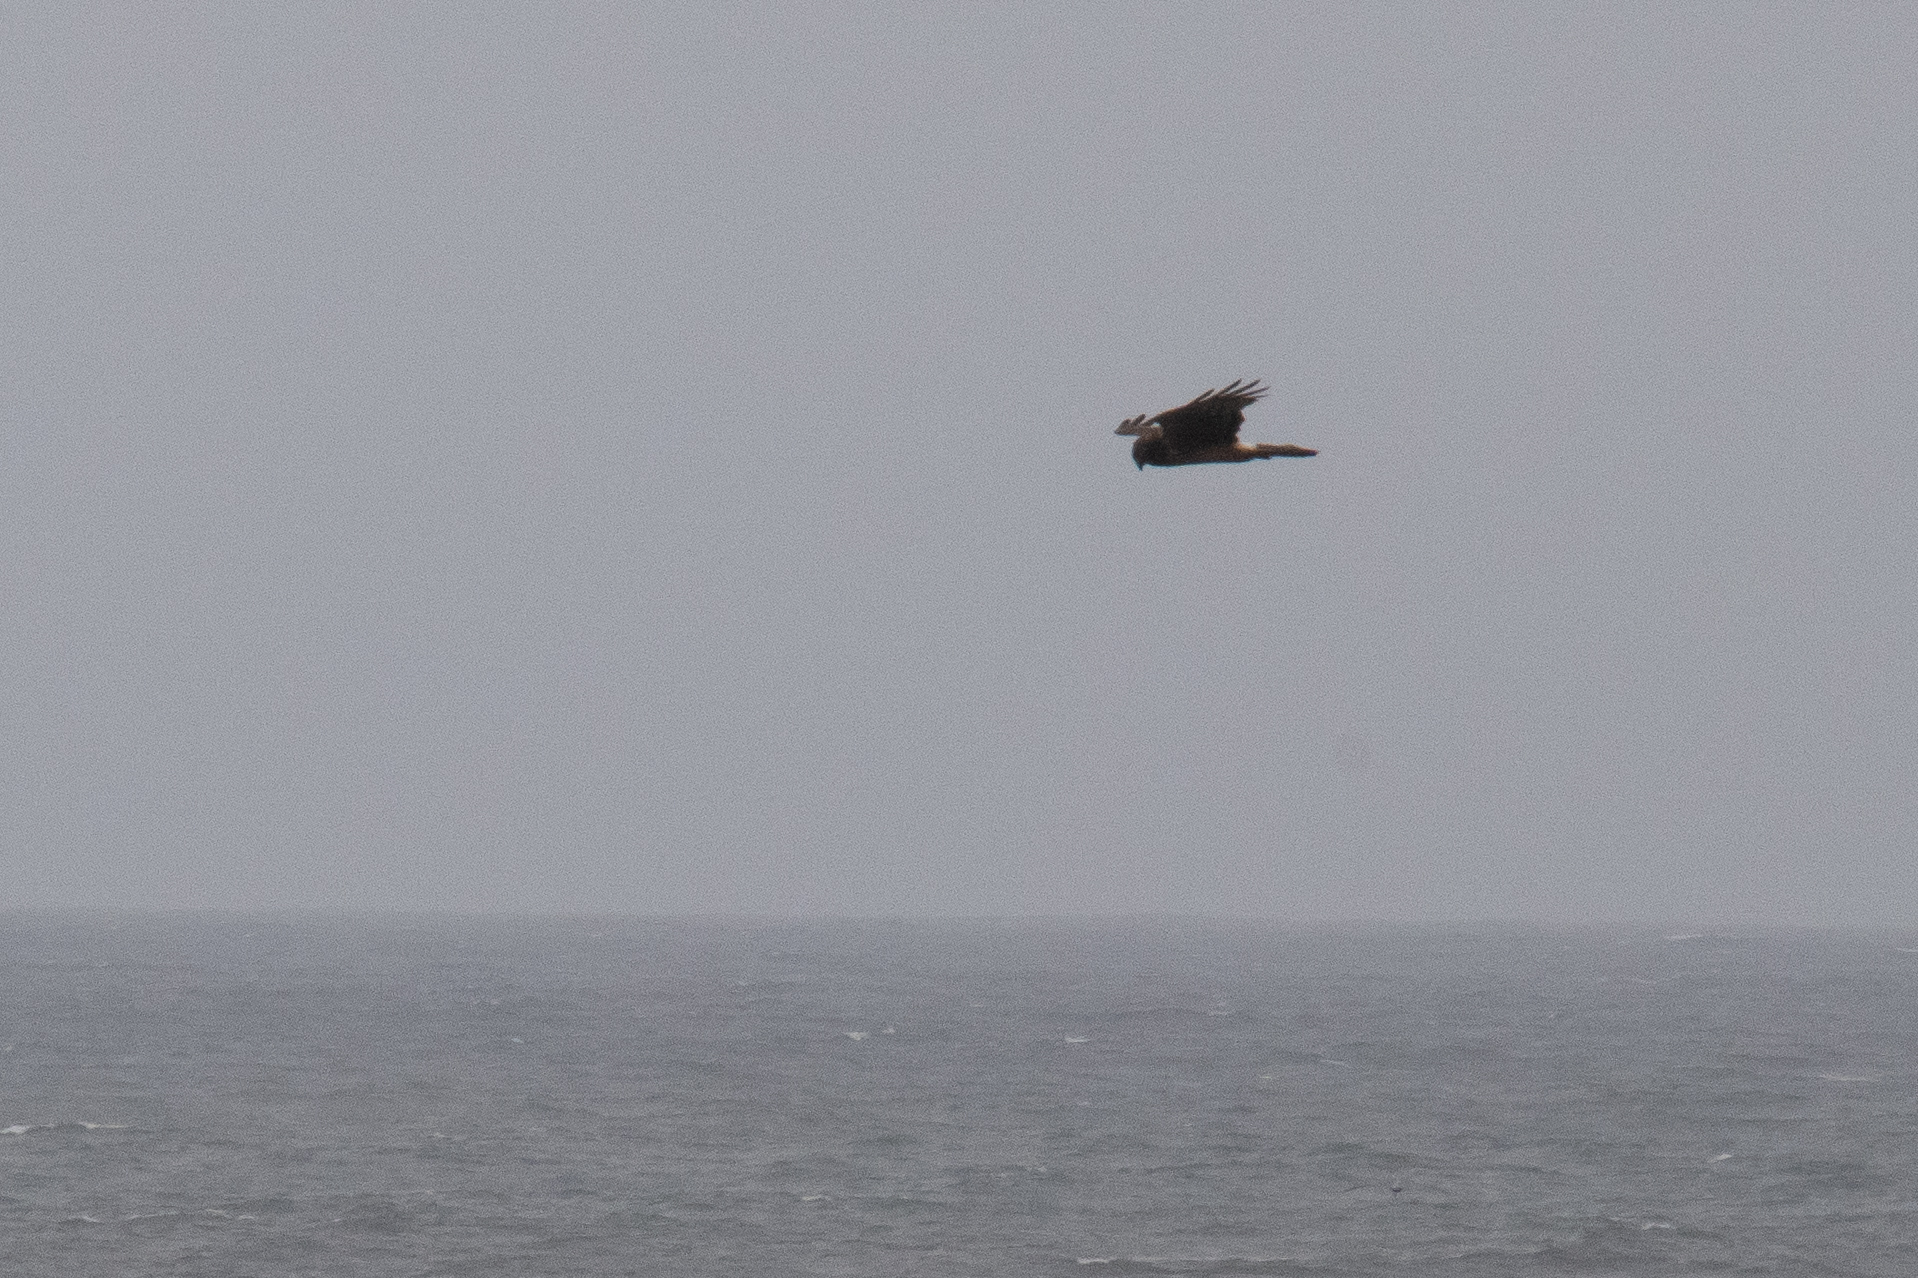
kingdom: Animalia
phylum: Chordata
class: Aves
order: Accipitriformes
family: Accipitridae
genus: Circus
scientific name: Circus cyaneus
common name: Hen harrier
